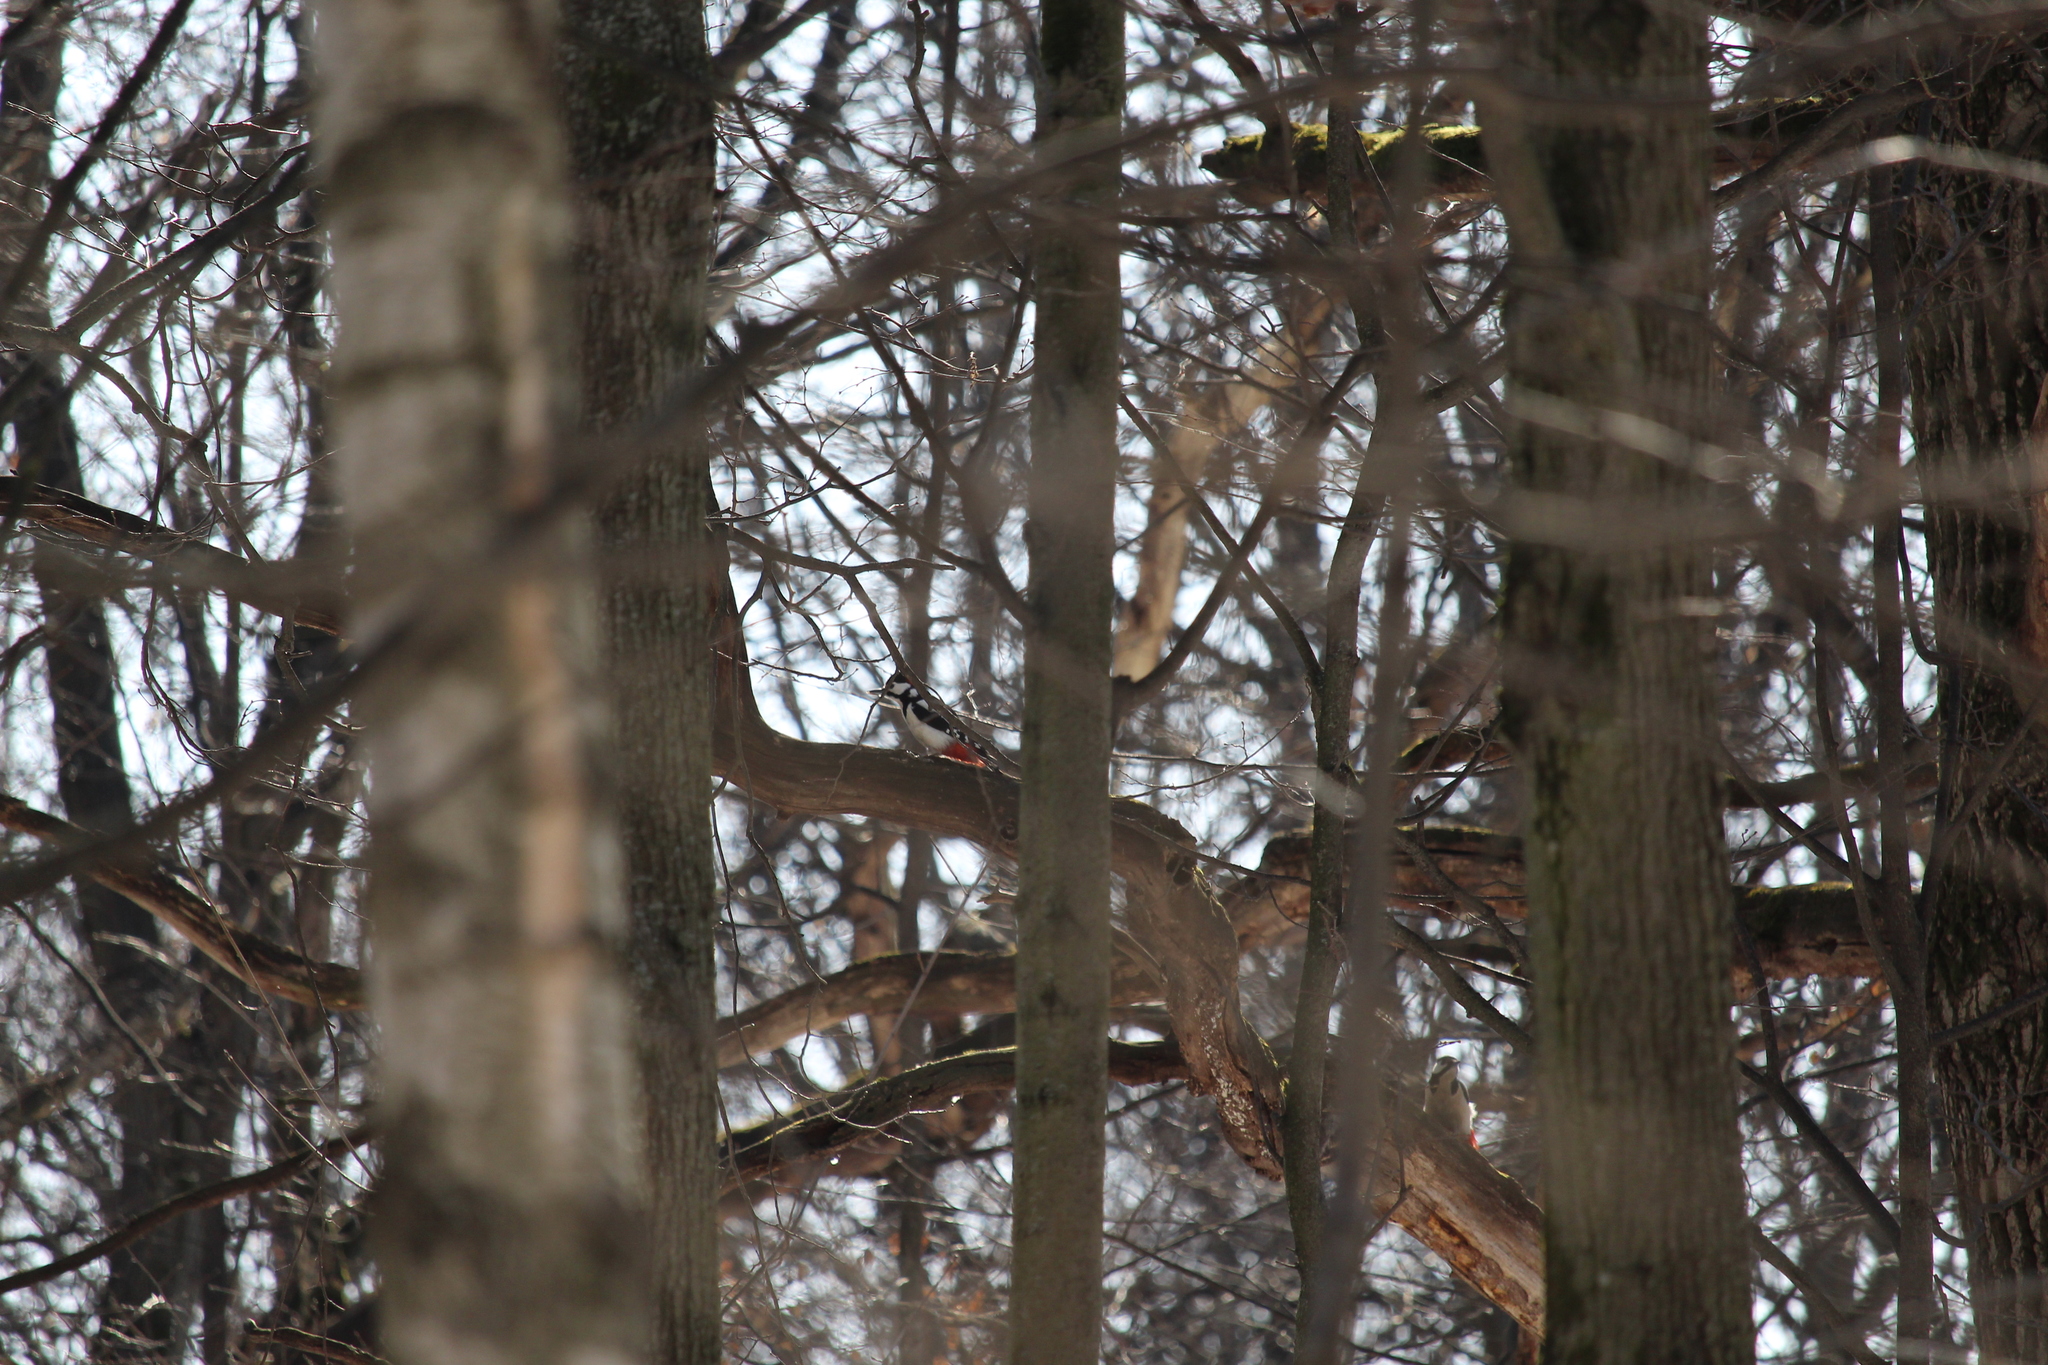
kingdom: Animalia
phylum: Chordata
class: Aves
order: Piciformes
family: Picidae
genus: Dendrocopos
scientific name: Dendrocopos major
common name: Great spotted woodpecker
